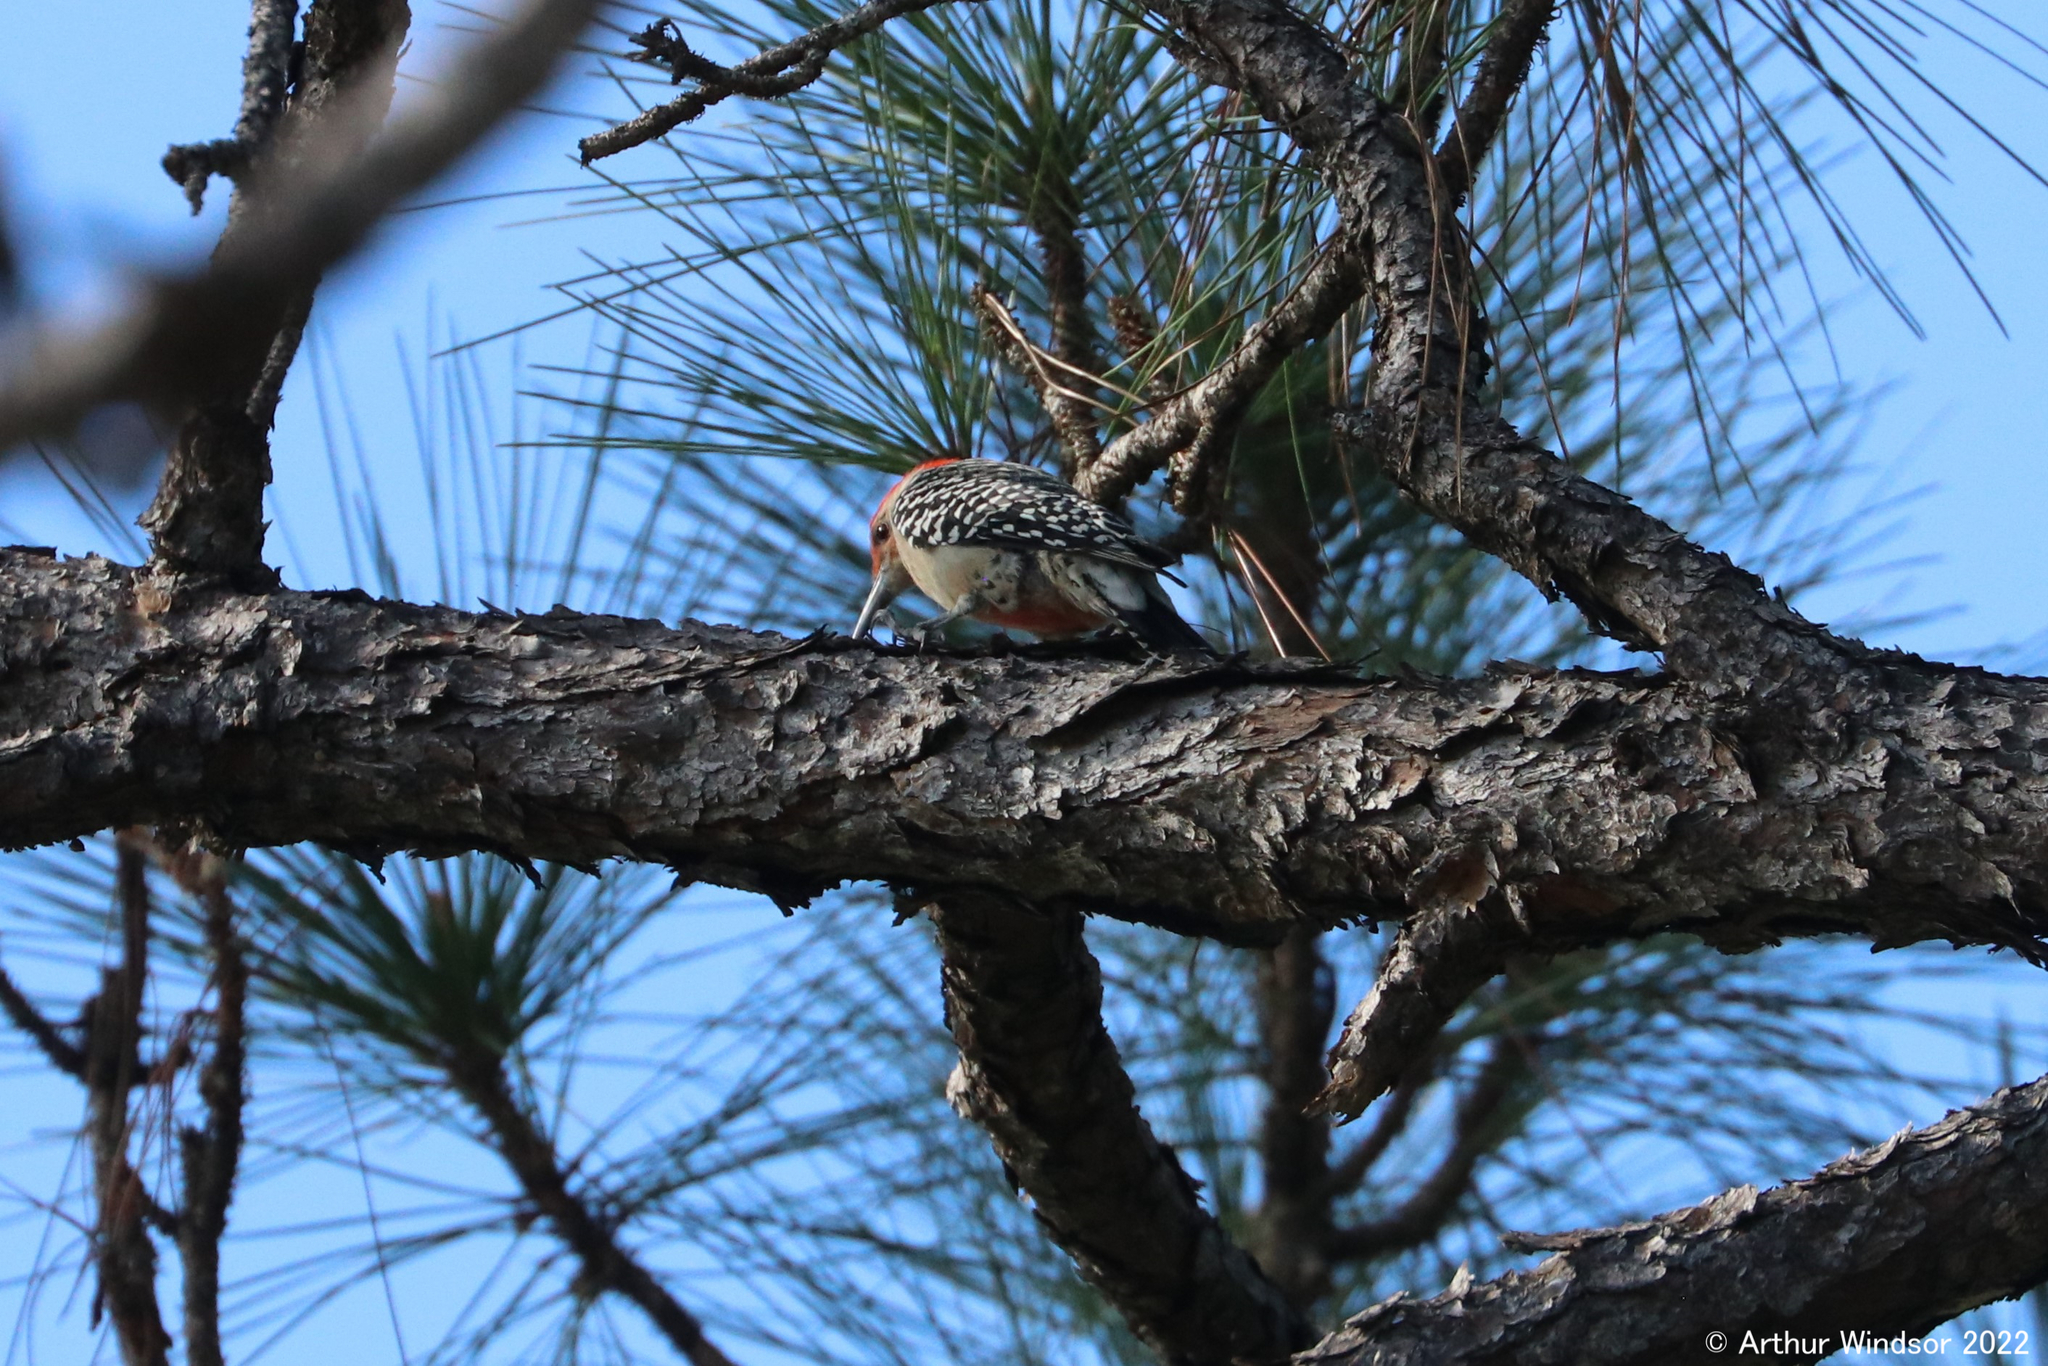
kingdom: Animalia
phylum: Chordata
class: Aves
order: Piciformes
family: Picidae
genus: Melanerpes
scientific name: Melanerpes carolinus
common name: Red-bellied woodpecker
